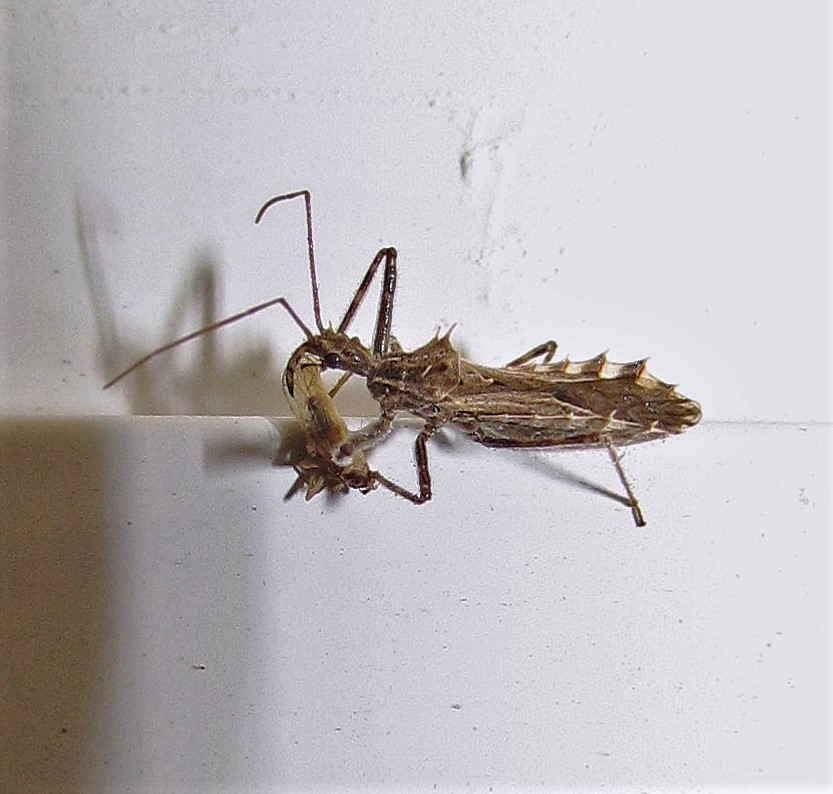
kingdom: Animalia
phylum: Arthropoda
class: Insecta
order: Hemiptera
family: Reduviidae
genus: Atrachelus
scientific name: Atrachelus cinereus
